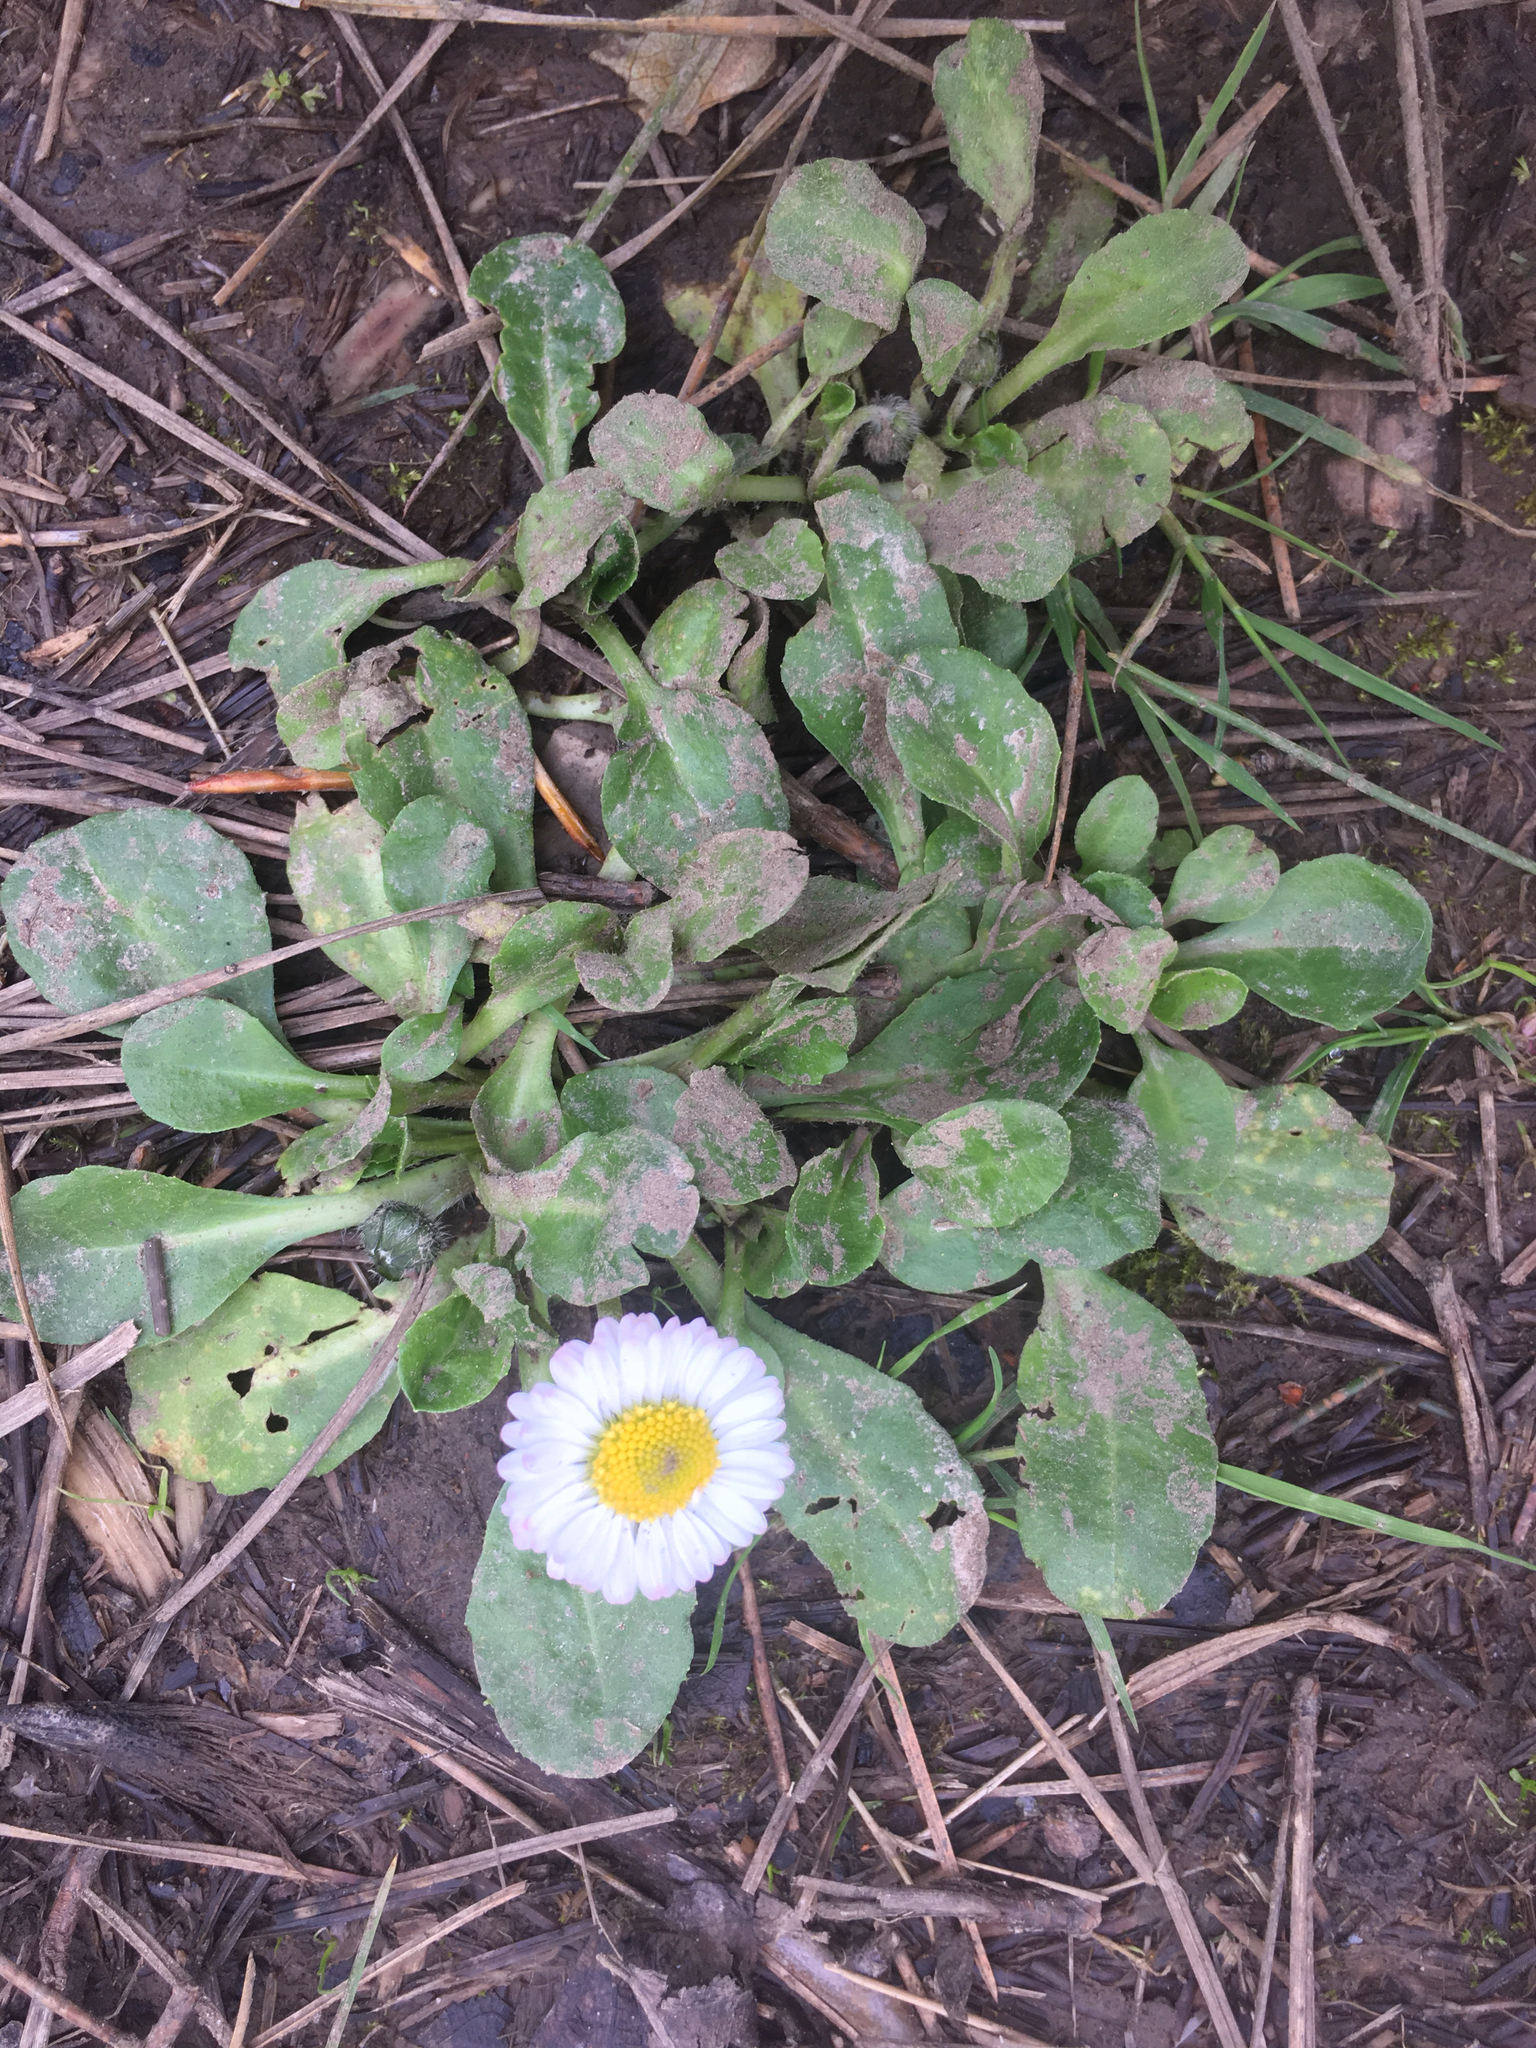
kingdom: Plantae
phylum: Tracheophyta
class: Magnoliopsida
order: Asterales
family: Asteraceae
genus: Bellis
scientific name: Bellis perennis
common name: Lawndaisy
